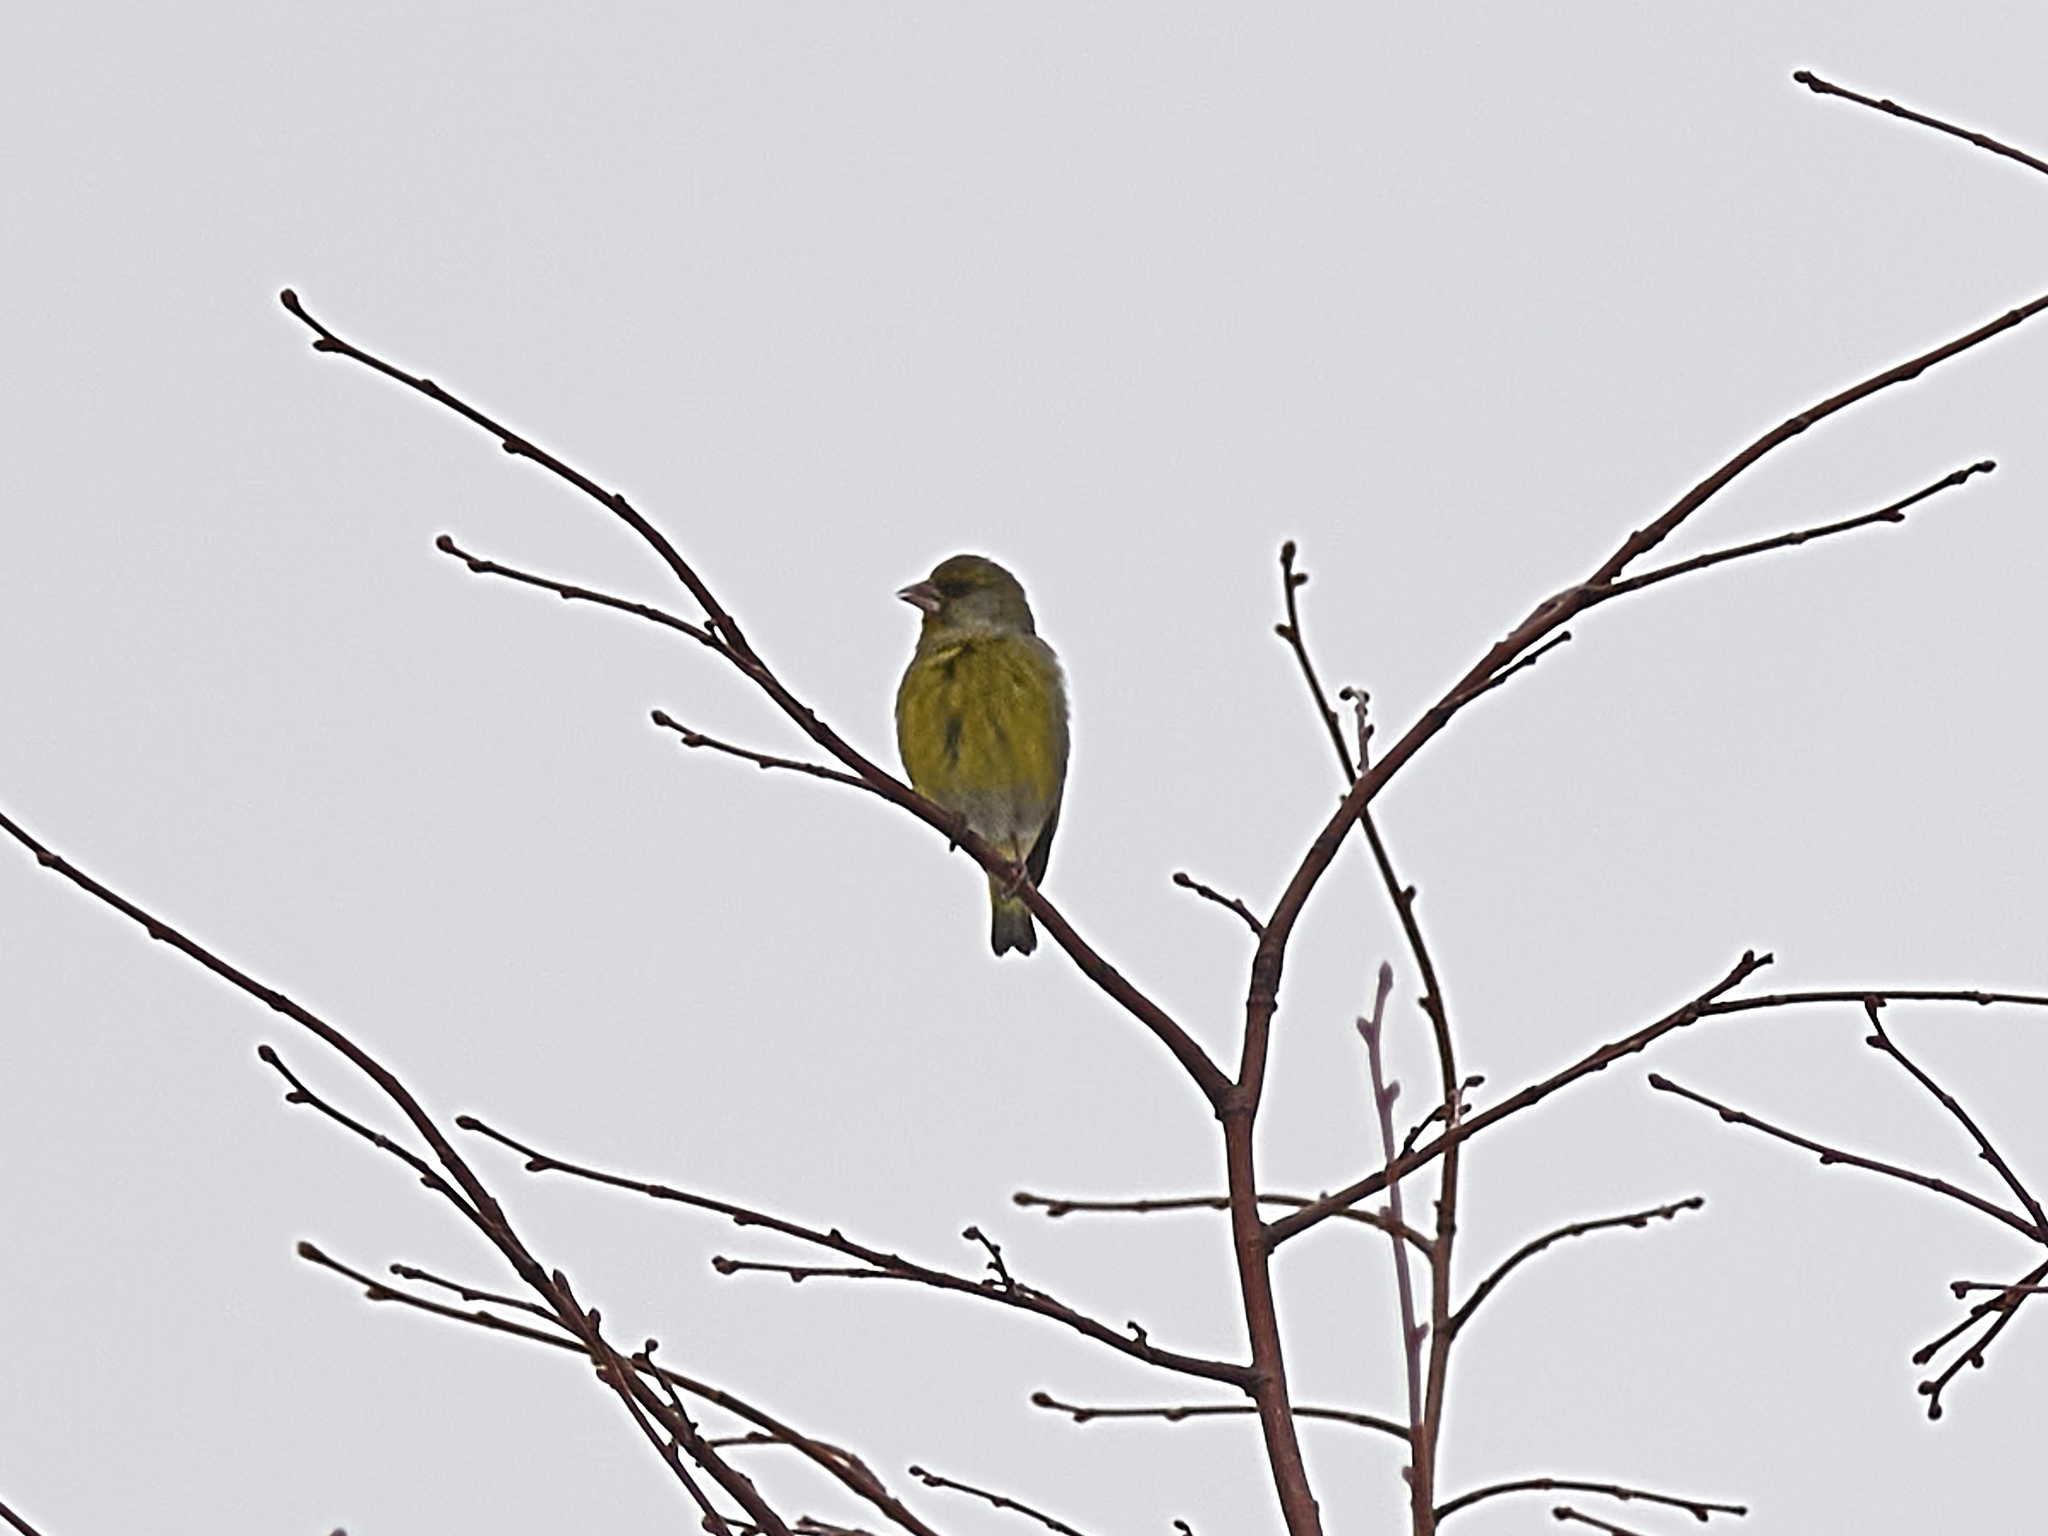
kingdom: Plantae
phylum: Tracheophyta
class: Liliopsida
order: Poales
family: Poaceae
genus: Chloris
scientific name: Chloris chloris
